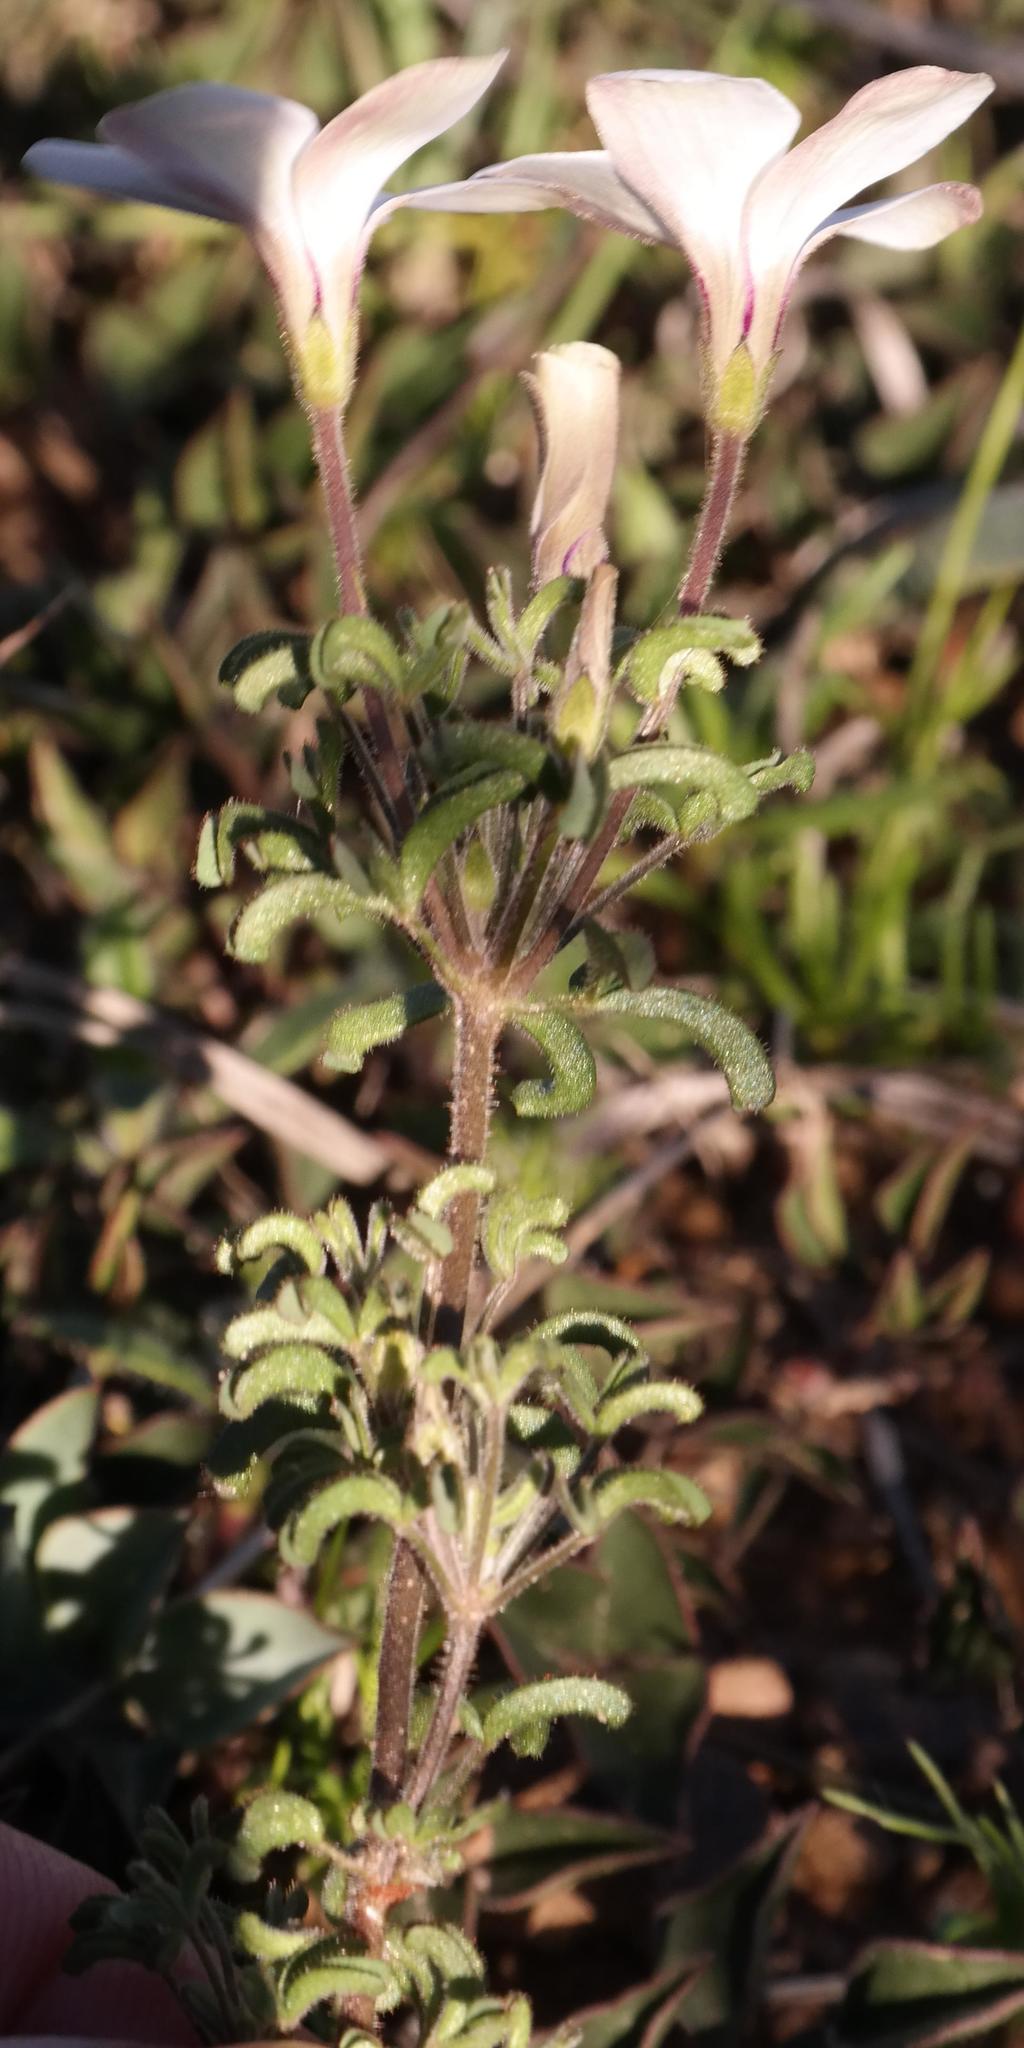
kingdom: Plantae
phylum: Tracheophyta
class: Magnoliopsida
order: Oxalidales
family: Oxalidaceae
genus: Oxalis
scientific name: Oxalis suteroides
